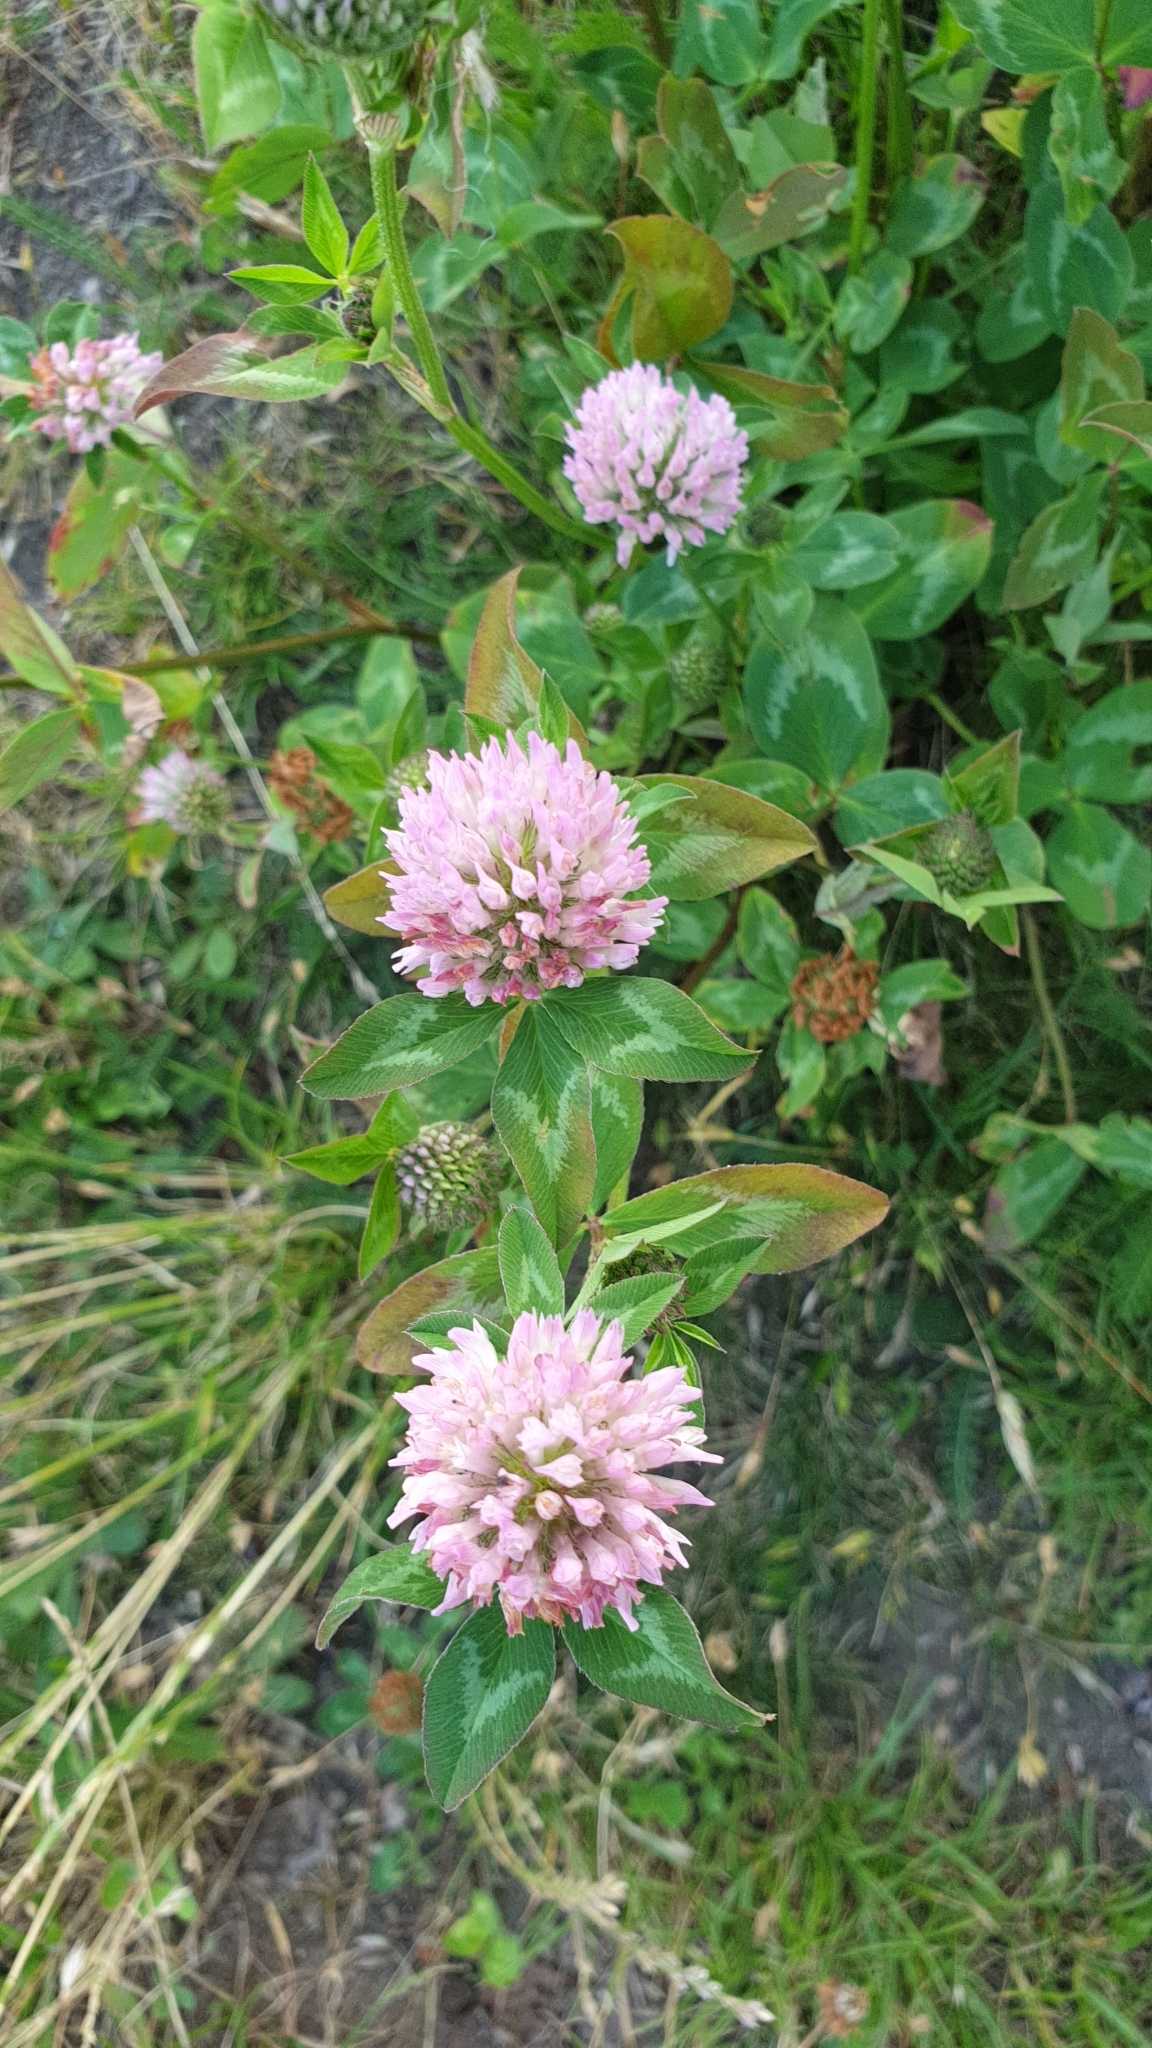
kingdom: Plantae
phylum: Tracheophyta
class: Magnoliopsida
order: Fabales
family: Fabaceae
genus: Trifolium
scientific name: Trifolium pratense
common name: Red clover
